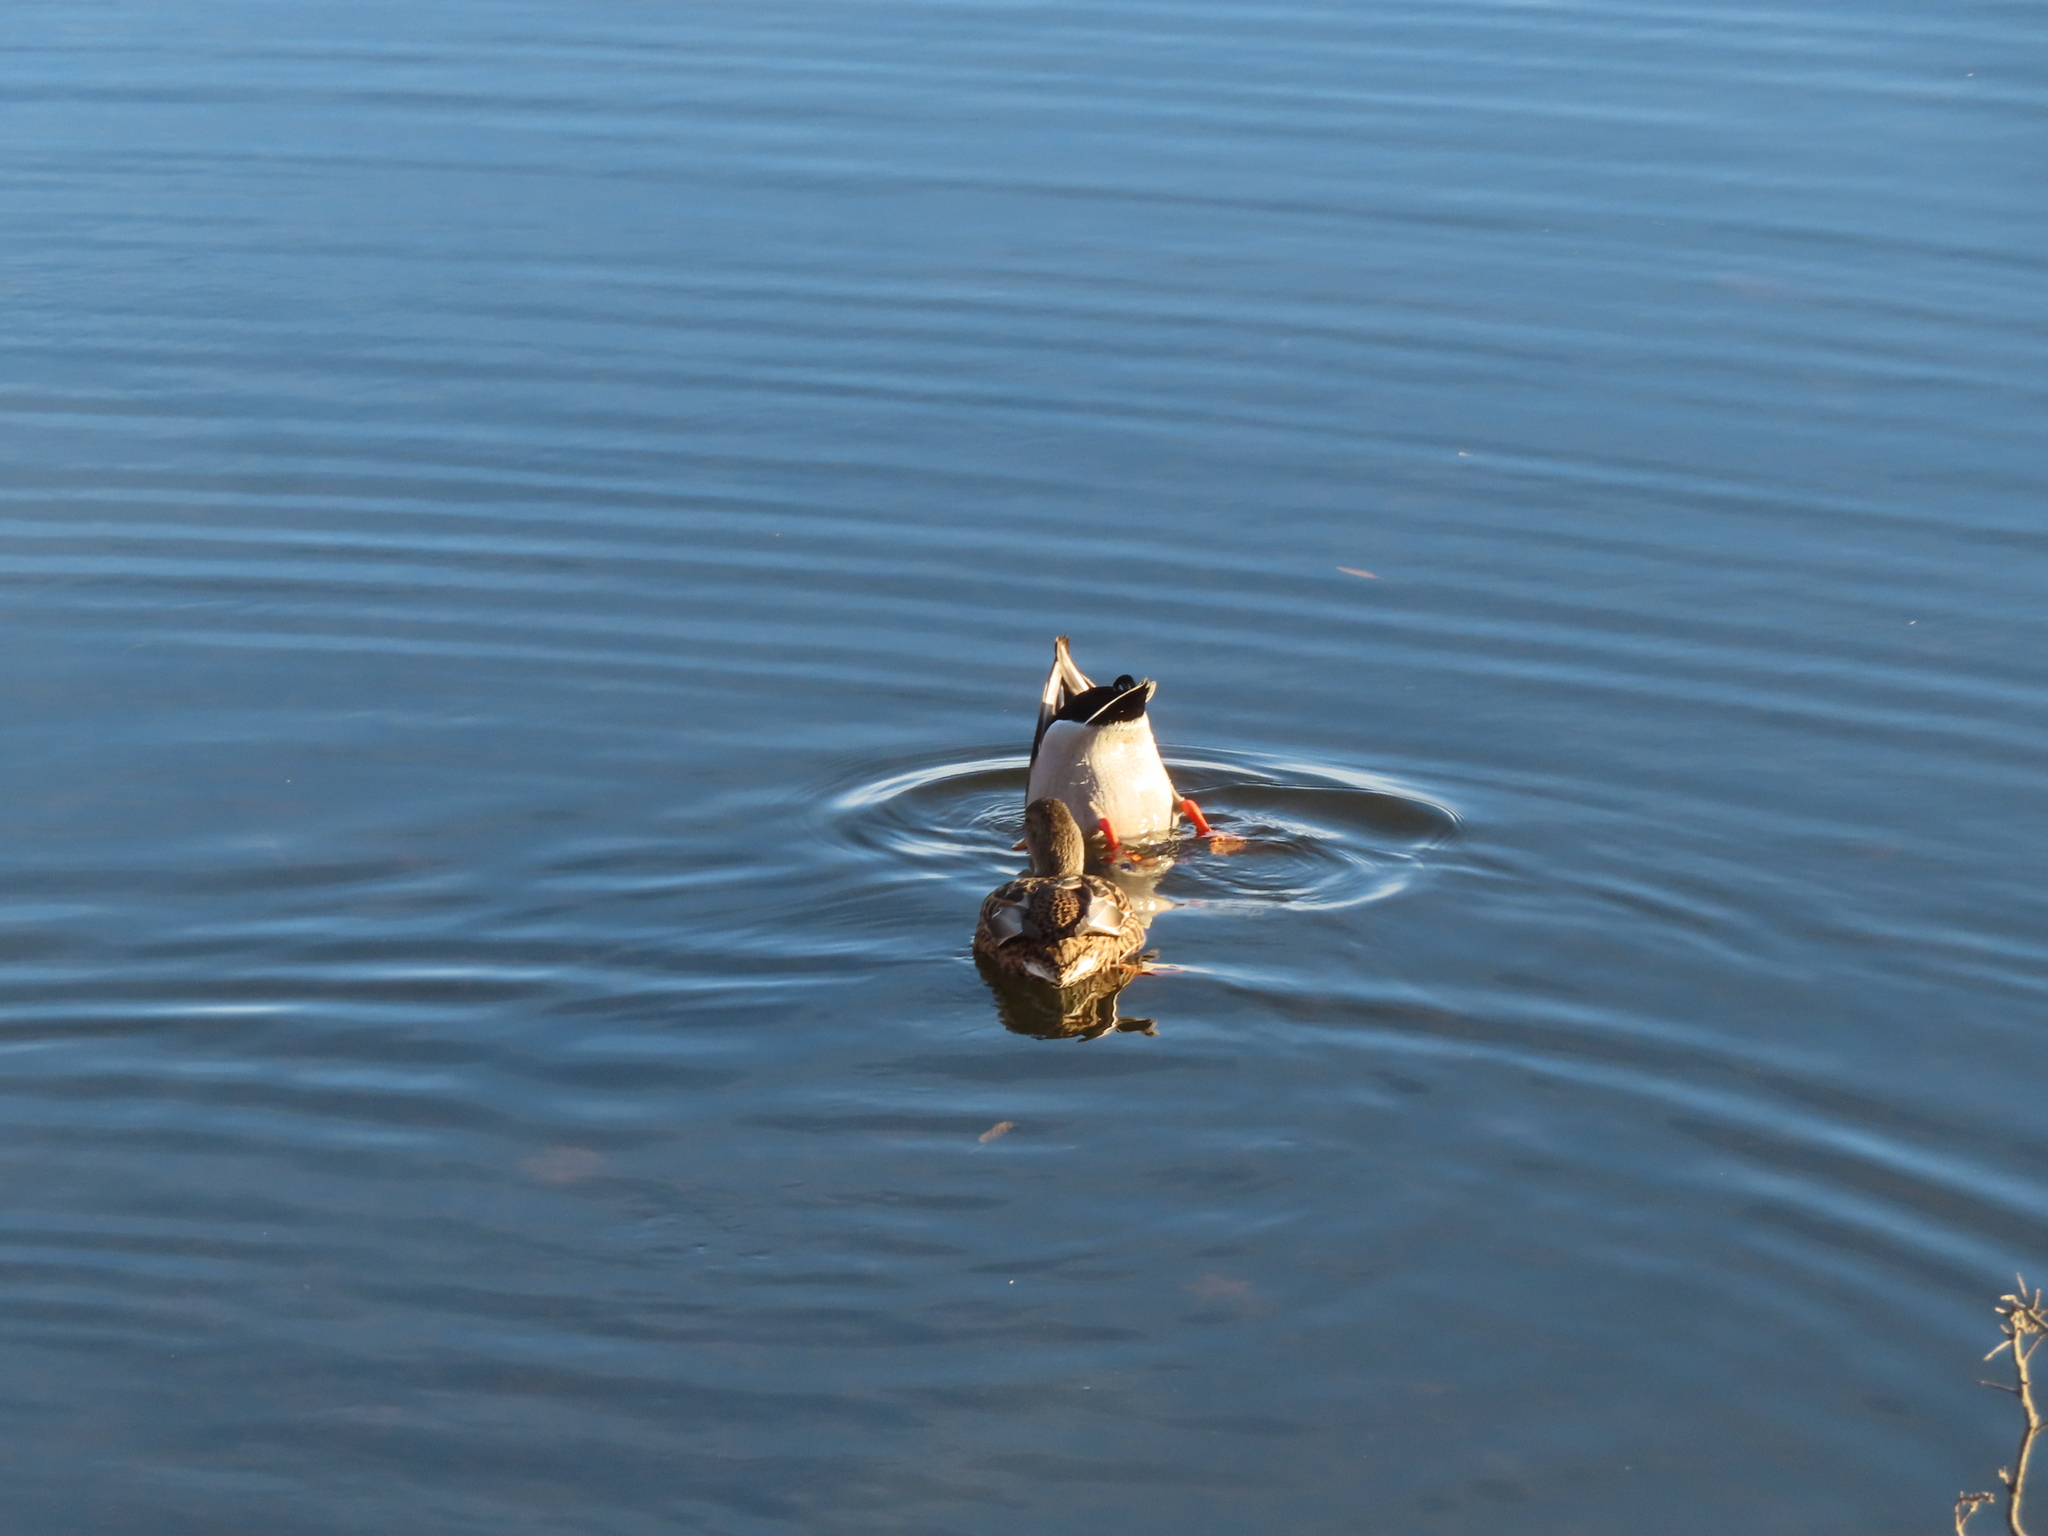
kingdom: Animalia
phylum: Chordata
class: Aves
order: Anseriformes
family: Anatidae
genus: Anas
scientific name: Anas platyrhynchos
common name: Mallard
